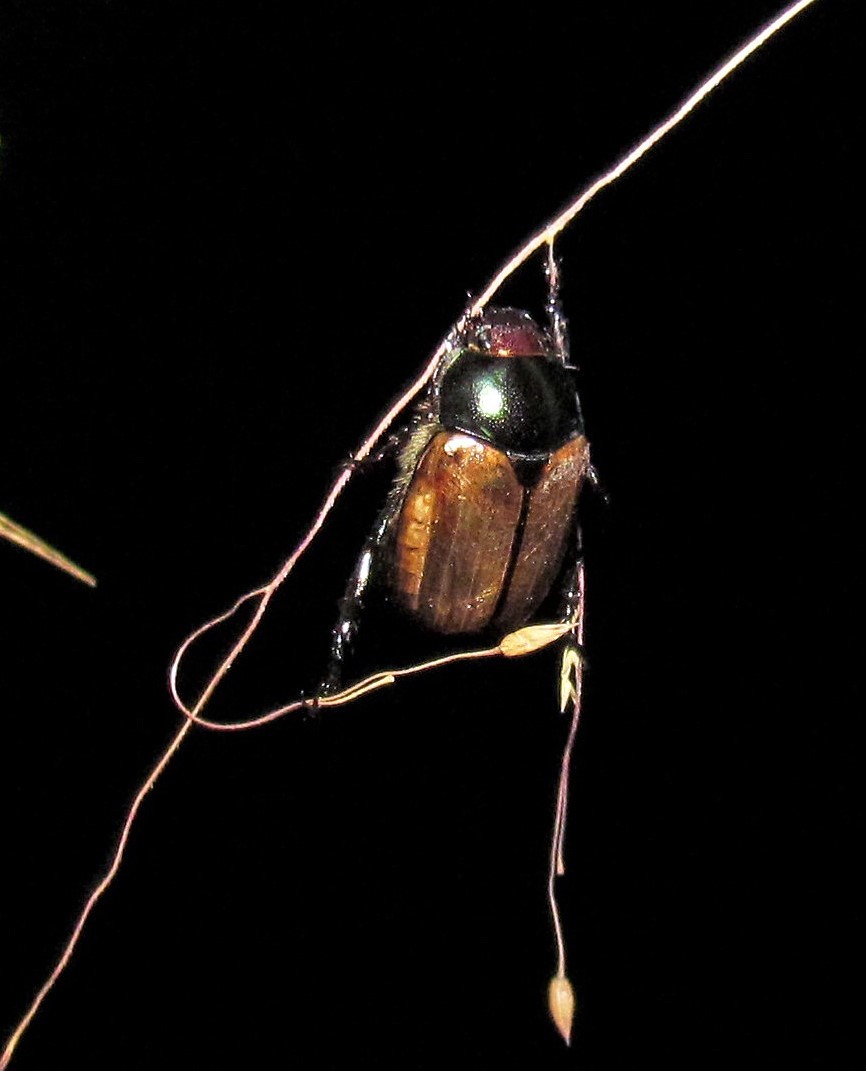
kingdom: Animalia
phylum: Arthropoda
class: Insecta
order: Coleoptera
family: Scarabaeidae
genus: Paranomala
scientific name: Paranomala testaceipennis
